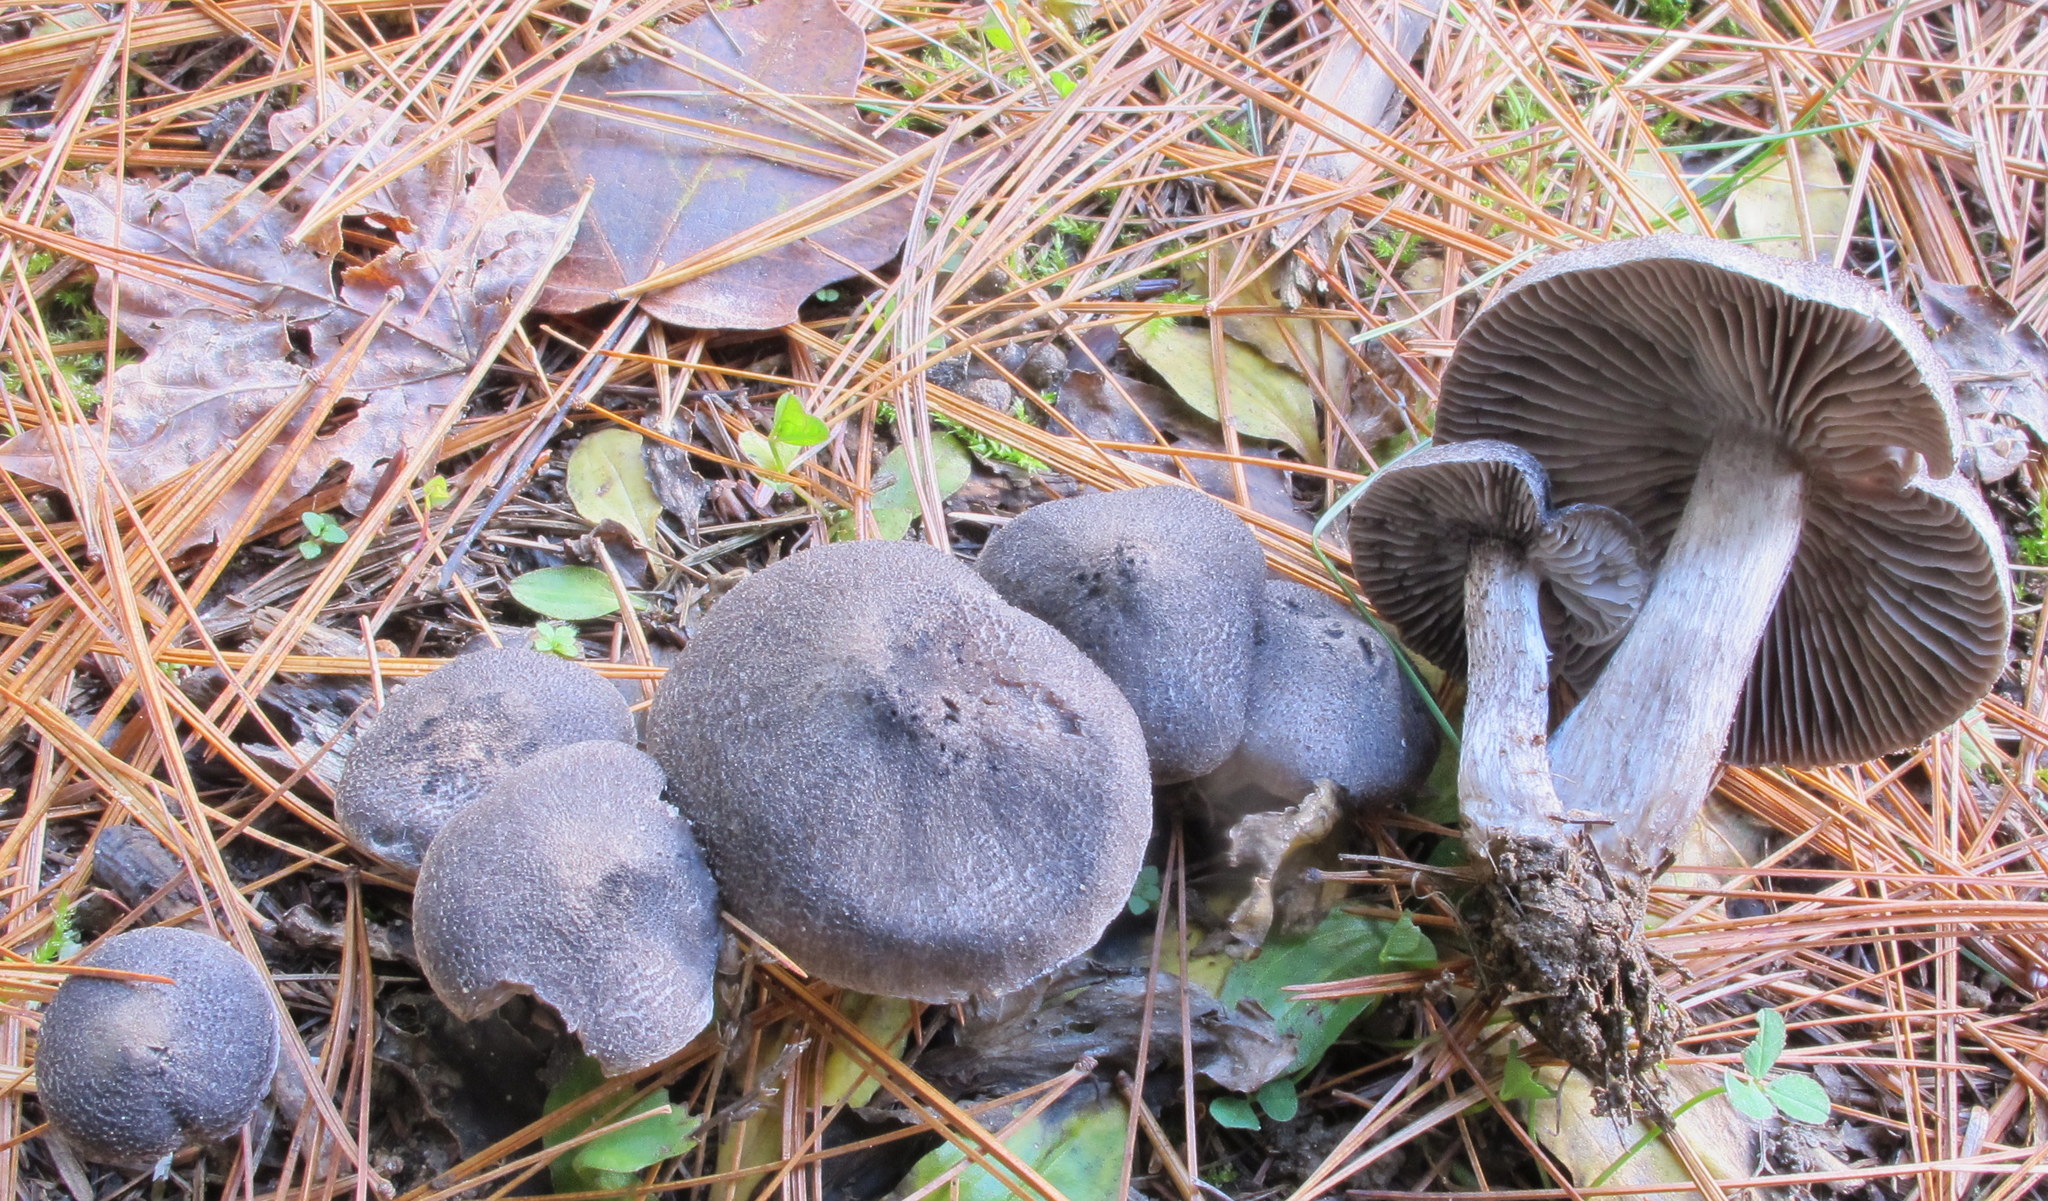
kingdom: Fungi
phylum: Basidiomycota
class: Agaricomycetes
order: Agaricales
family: Tricholomataceae
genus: Tricholoma
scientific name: Tricholoma terreum
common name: Grey knight
